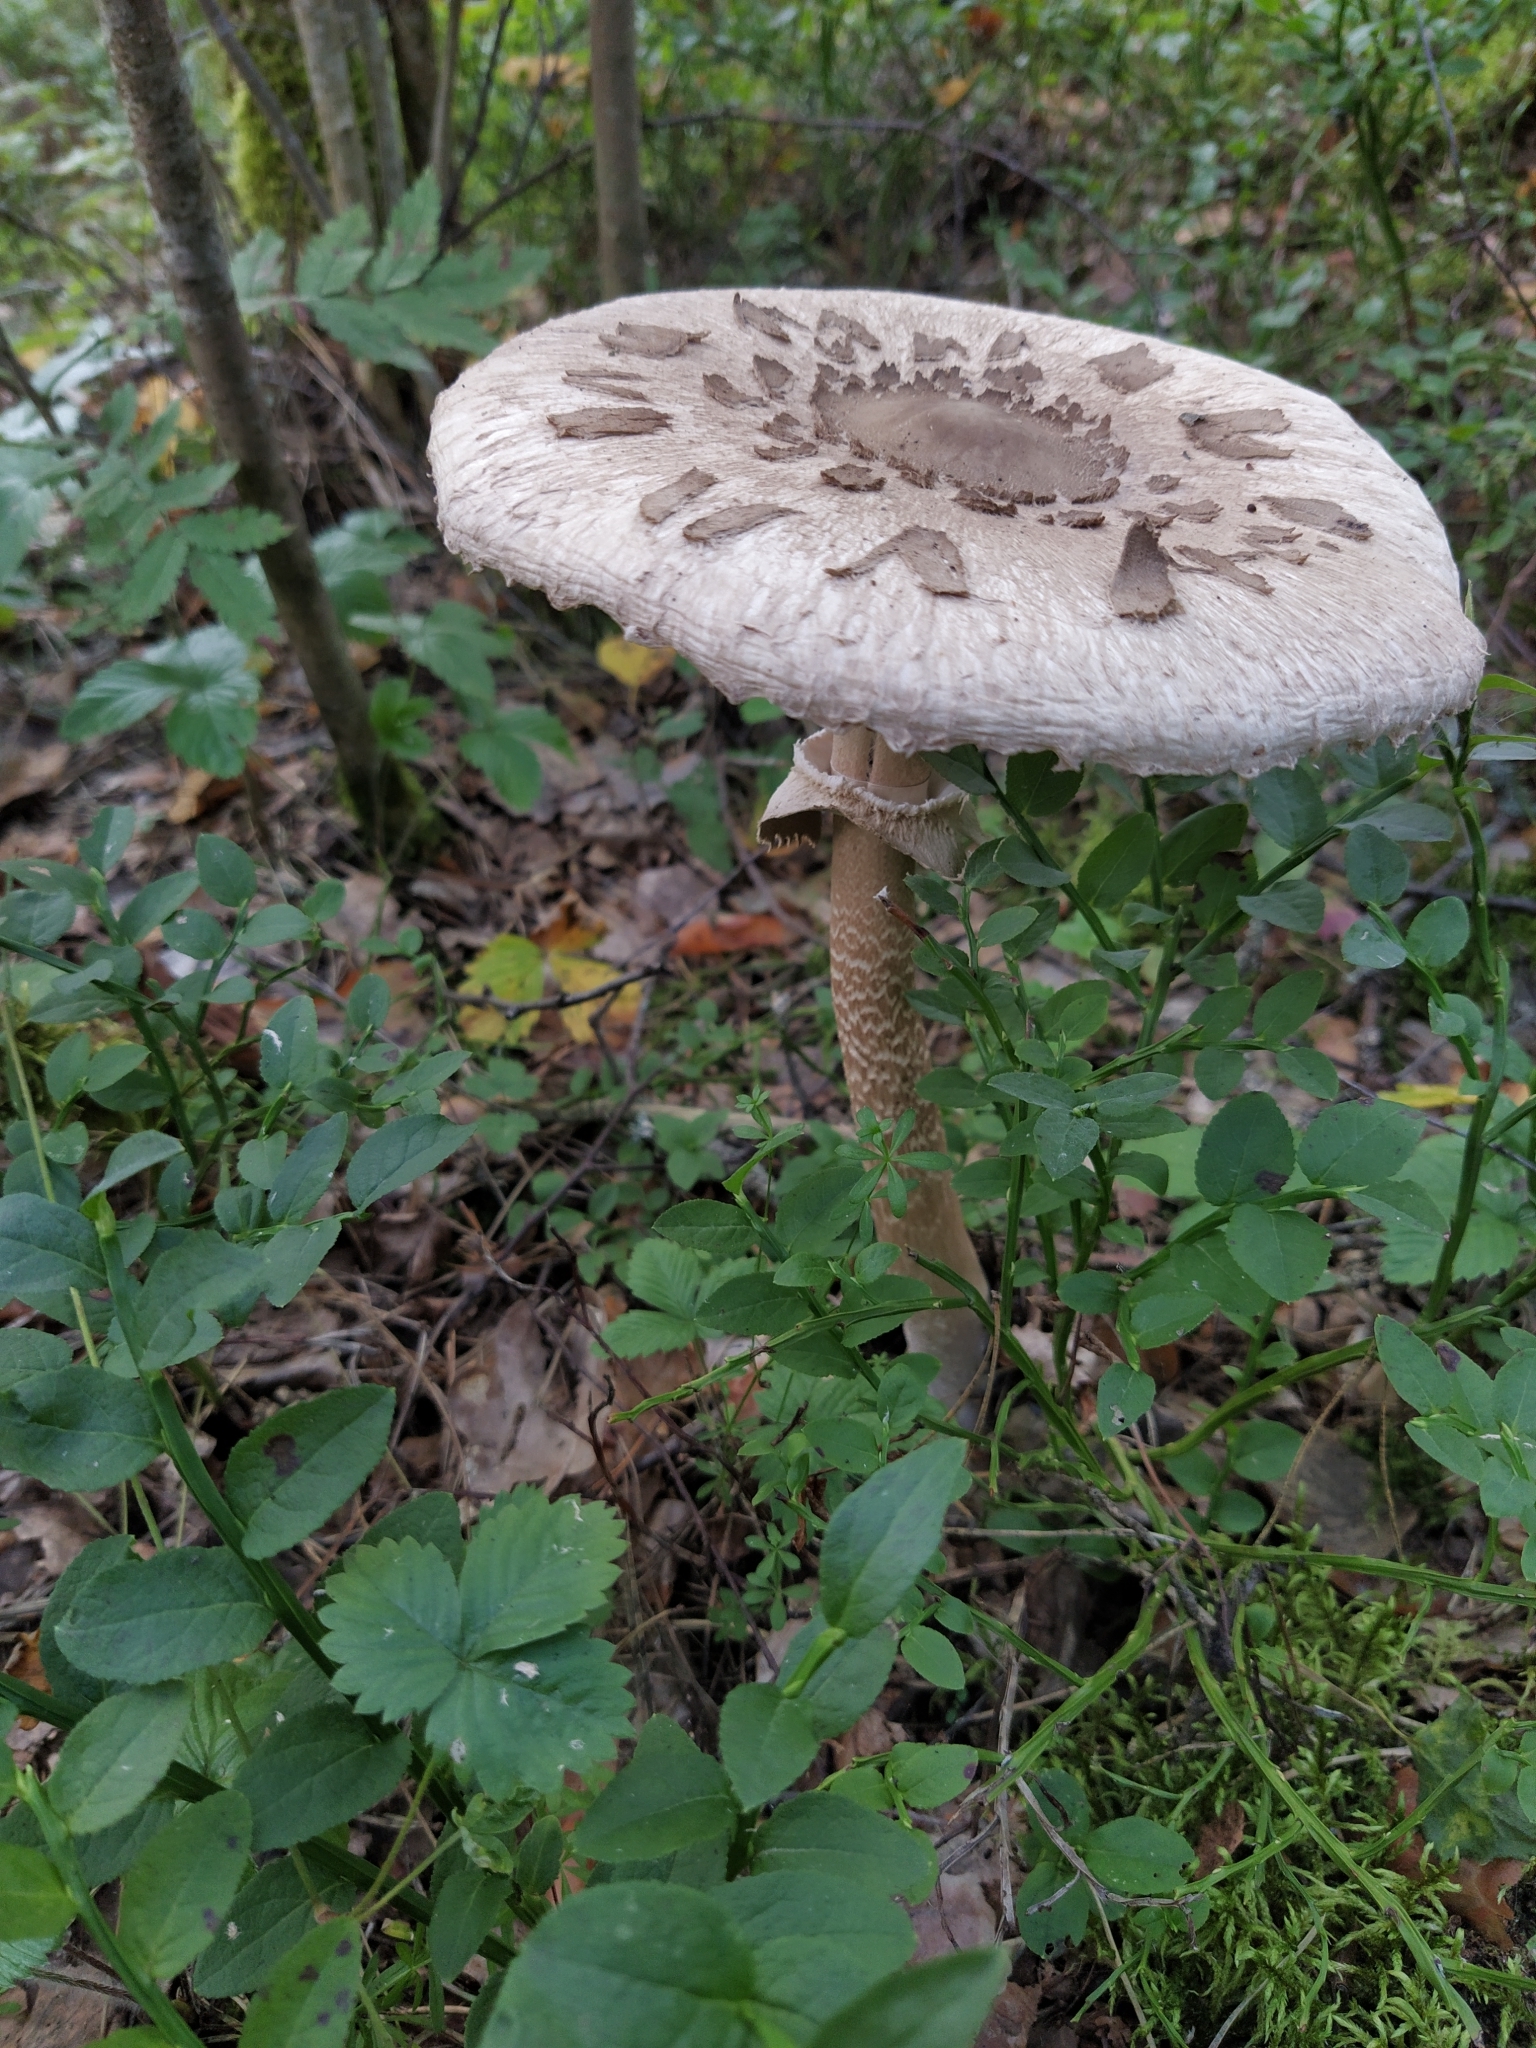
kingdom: Fungi
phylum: Basidiomycota
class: Agaricomycetes
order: Agaricales
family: Agaricaceae
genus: Macrolepiota
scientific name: Macrolepiota procera
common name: Parasol
